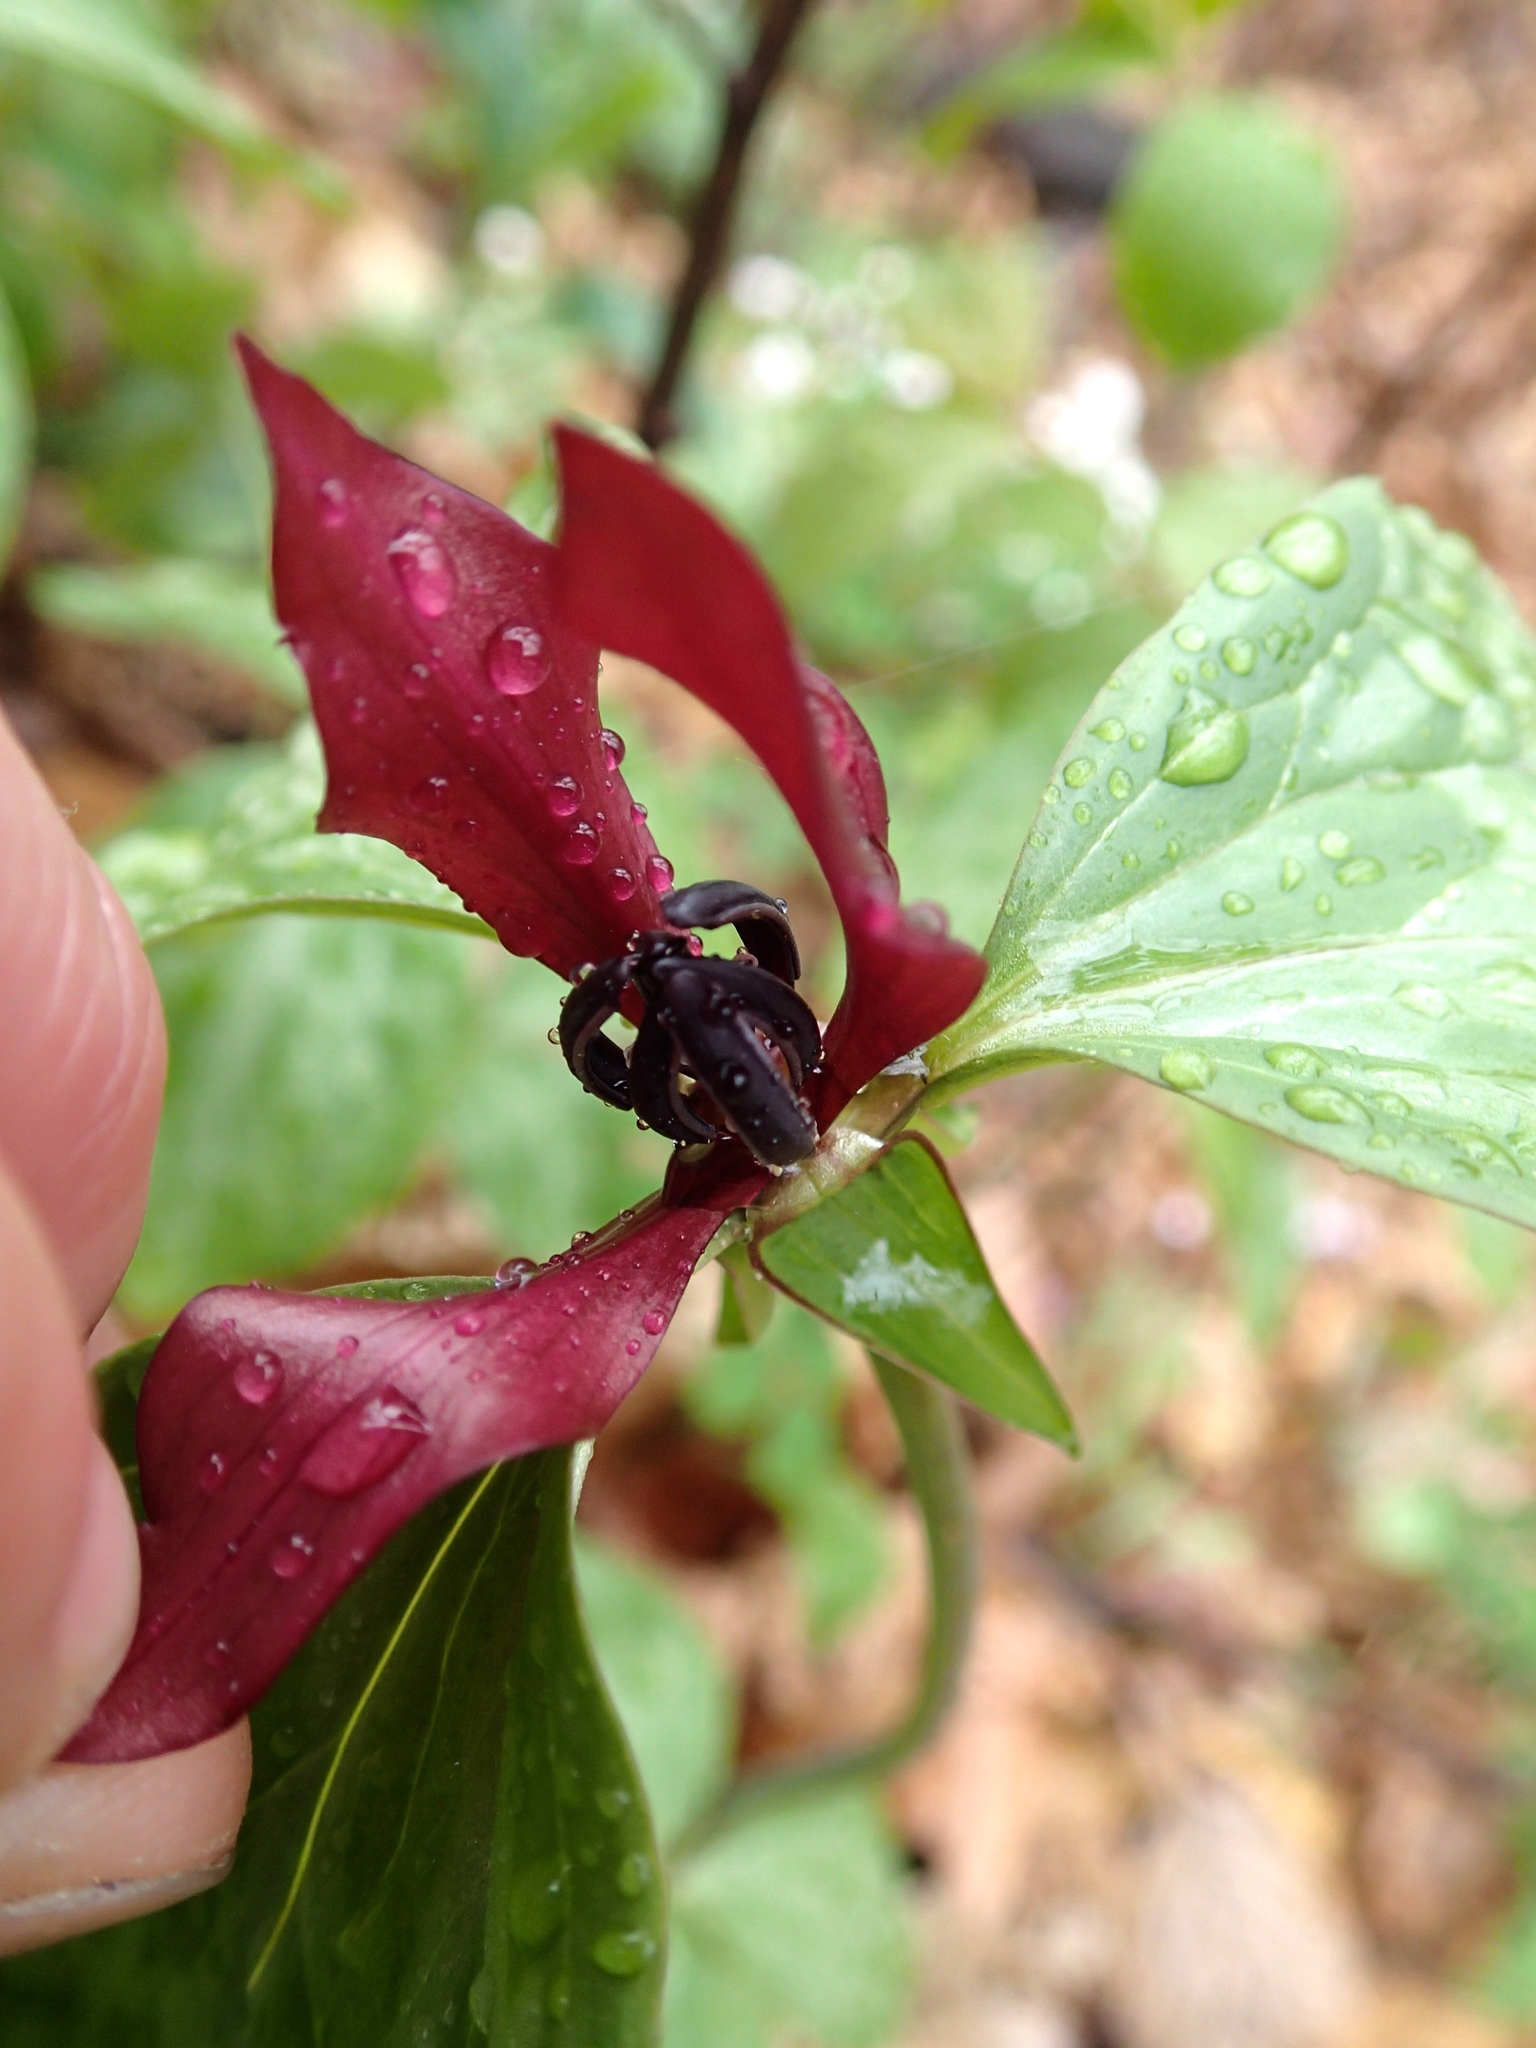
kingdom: Plantae
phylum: Tracheophyta
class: Liliopsida
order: Liliales
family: Melanthiaceae
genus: Trillium
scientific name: Trillium recurvatum
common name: Bloody butcher
